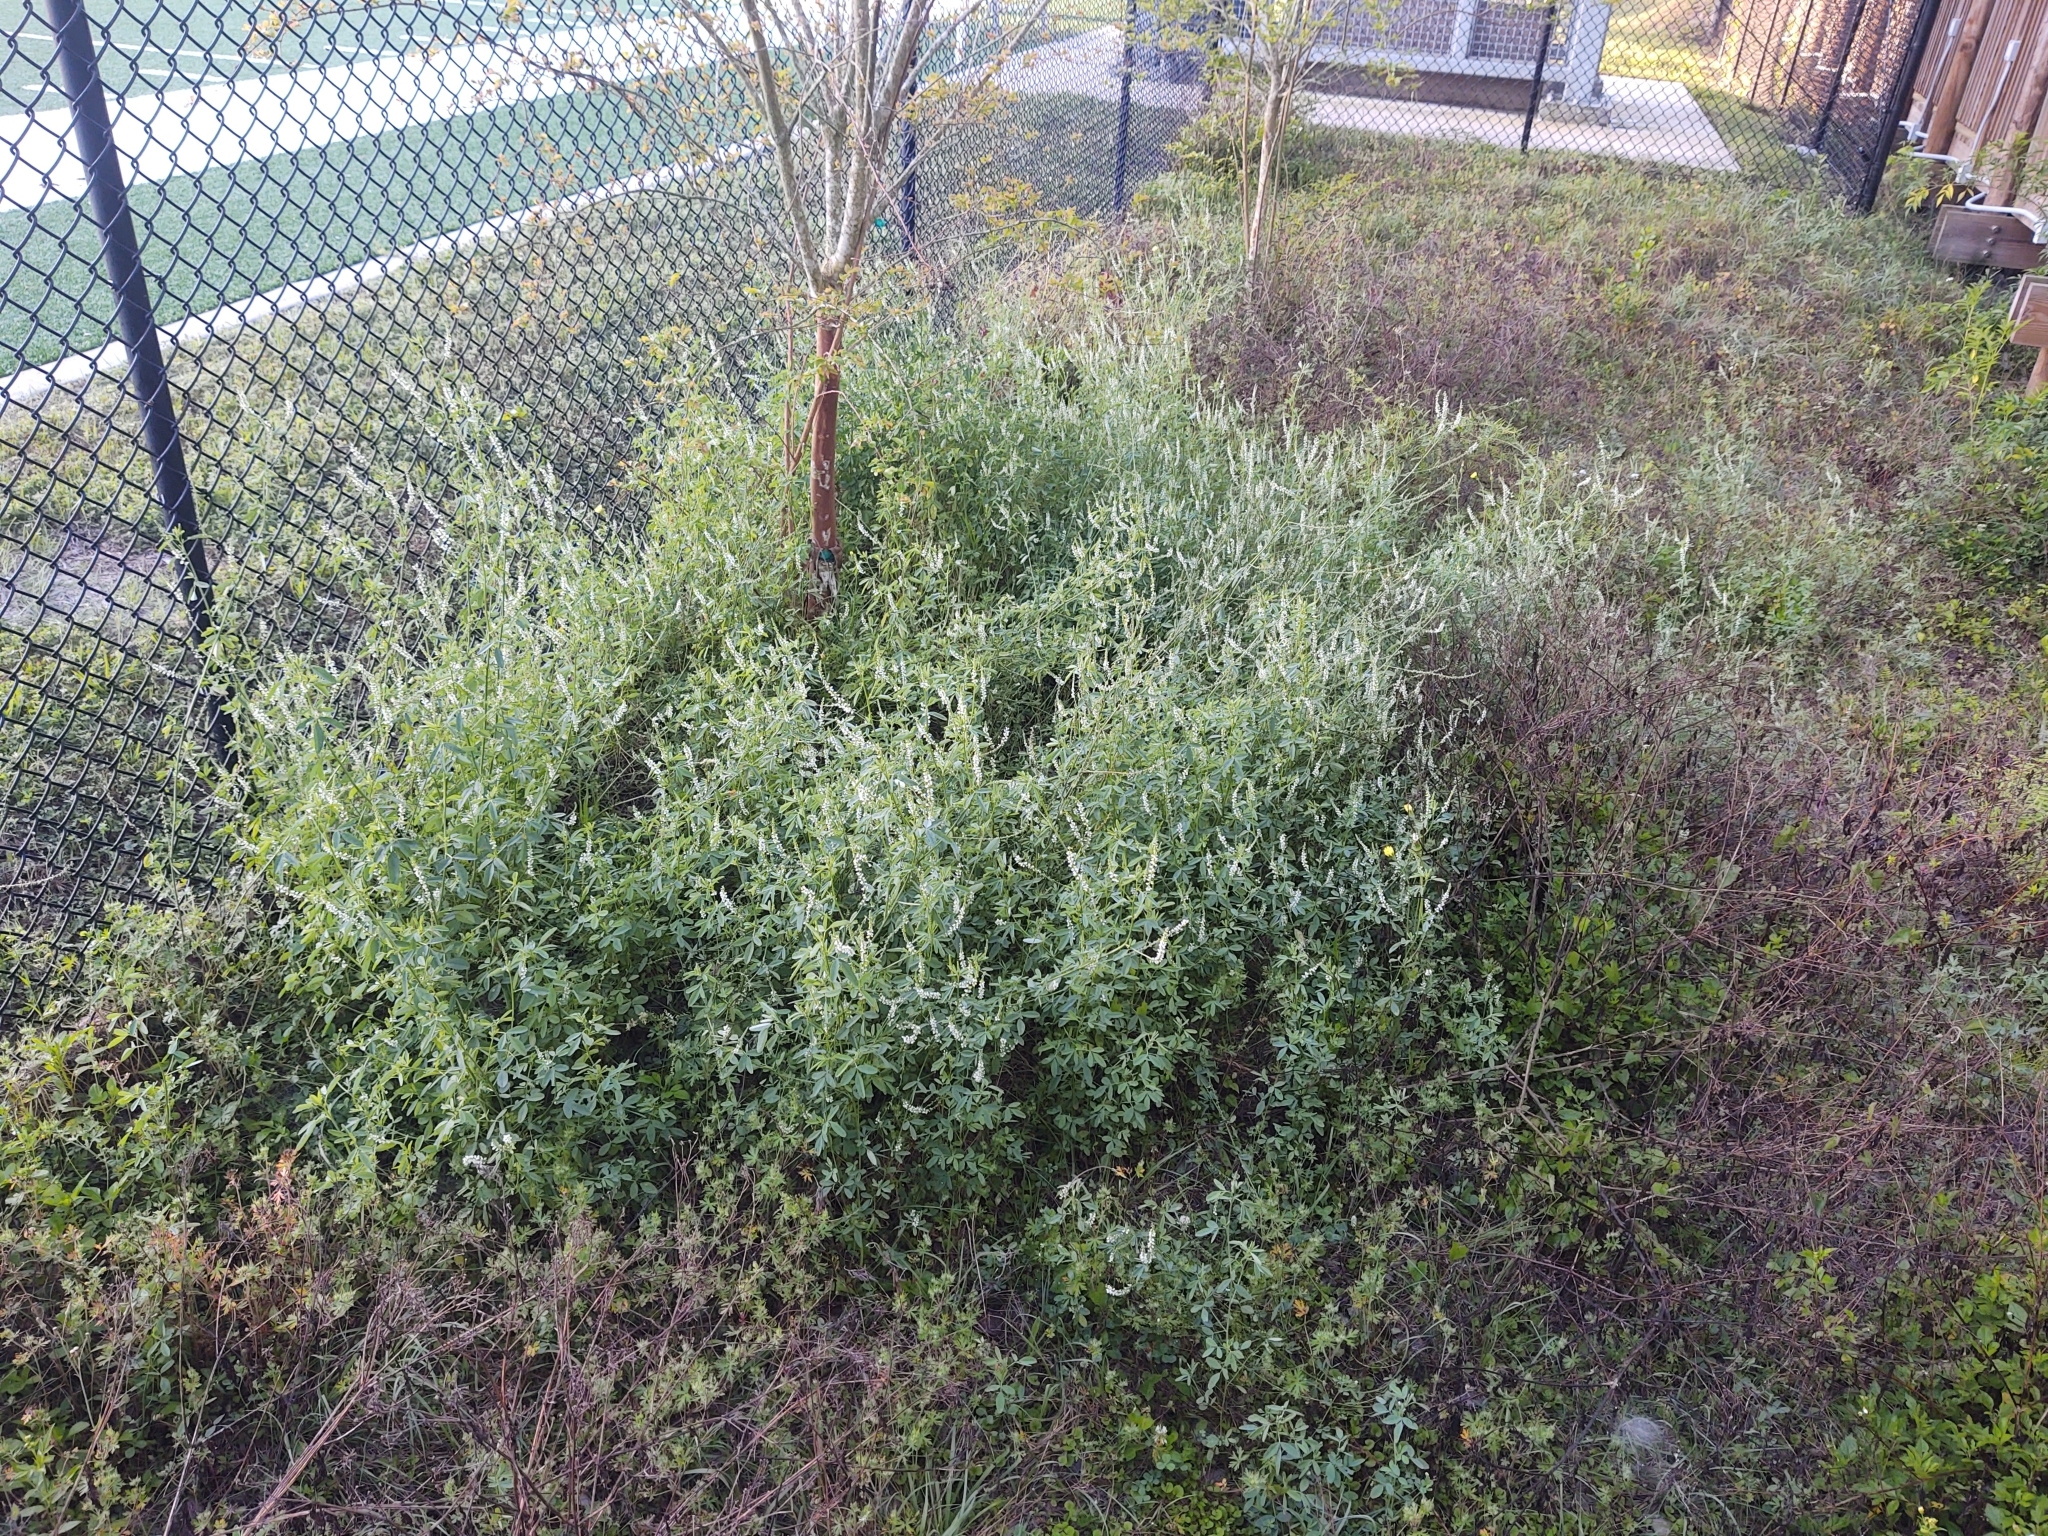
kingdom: Plantae
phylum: Tracheophyta
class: Magnoliopsida
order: Fabales
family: Fabaceae
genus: Melilotus
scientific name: Melilotus albus
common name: White melilot
